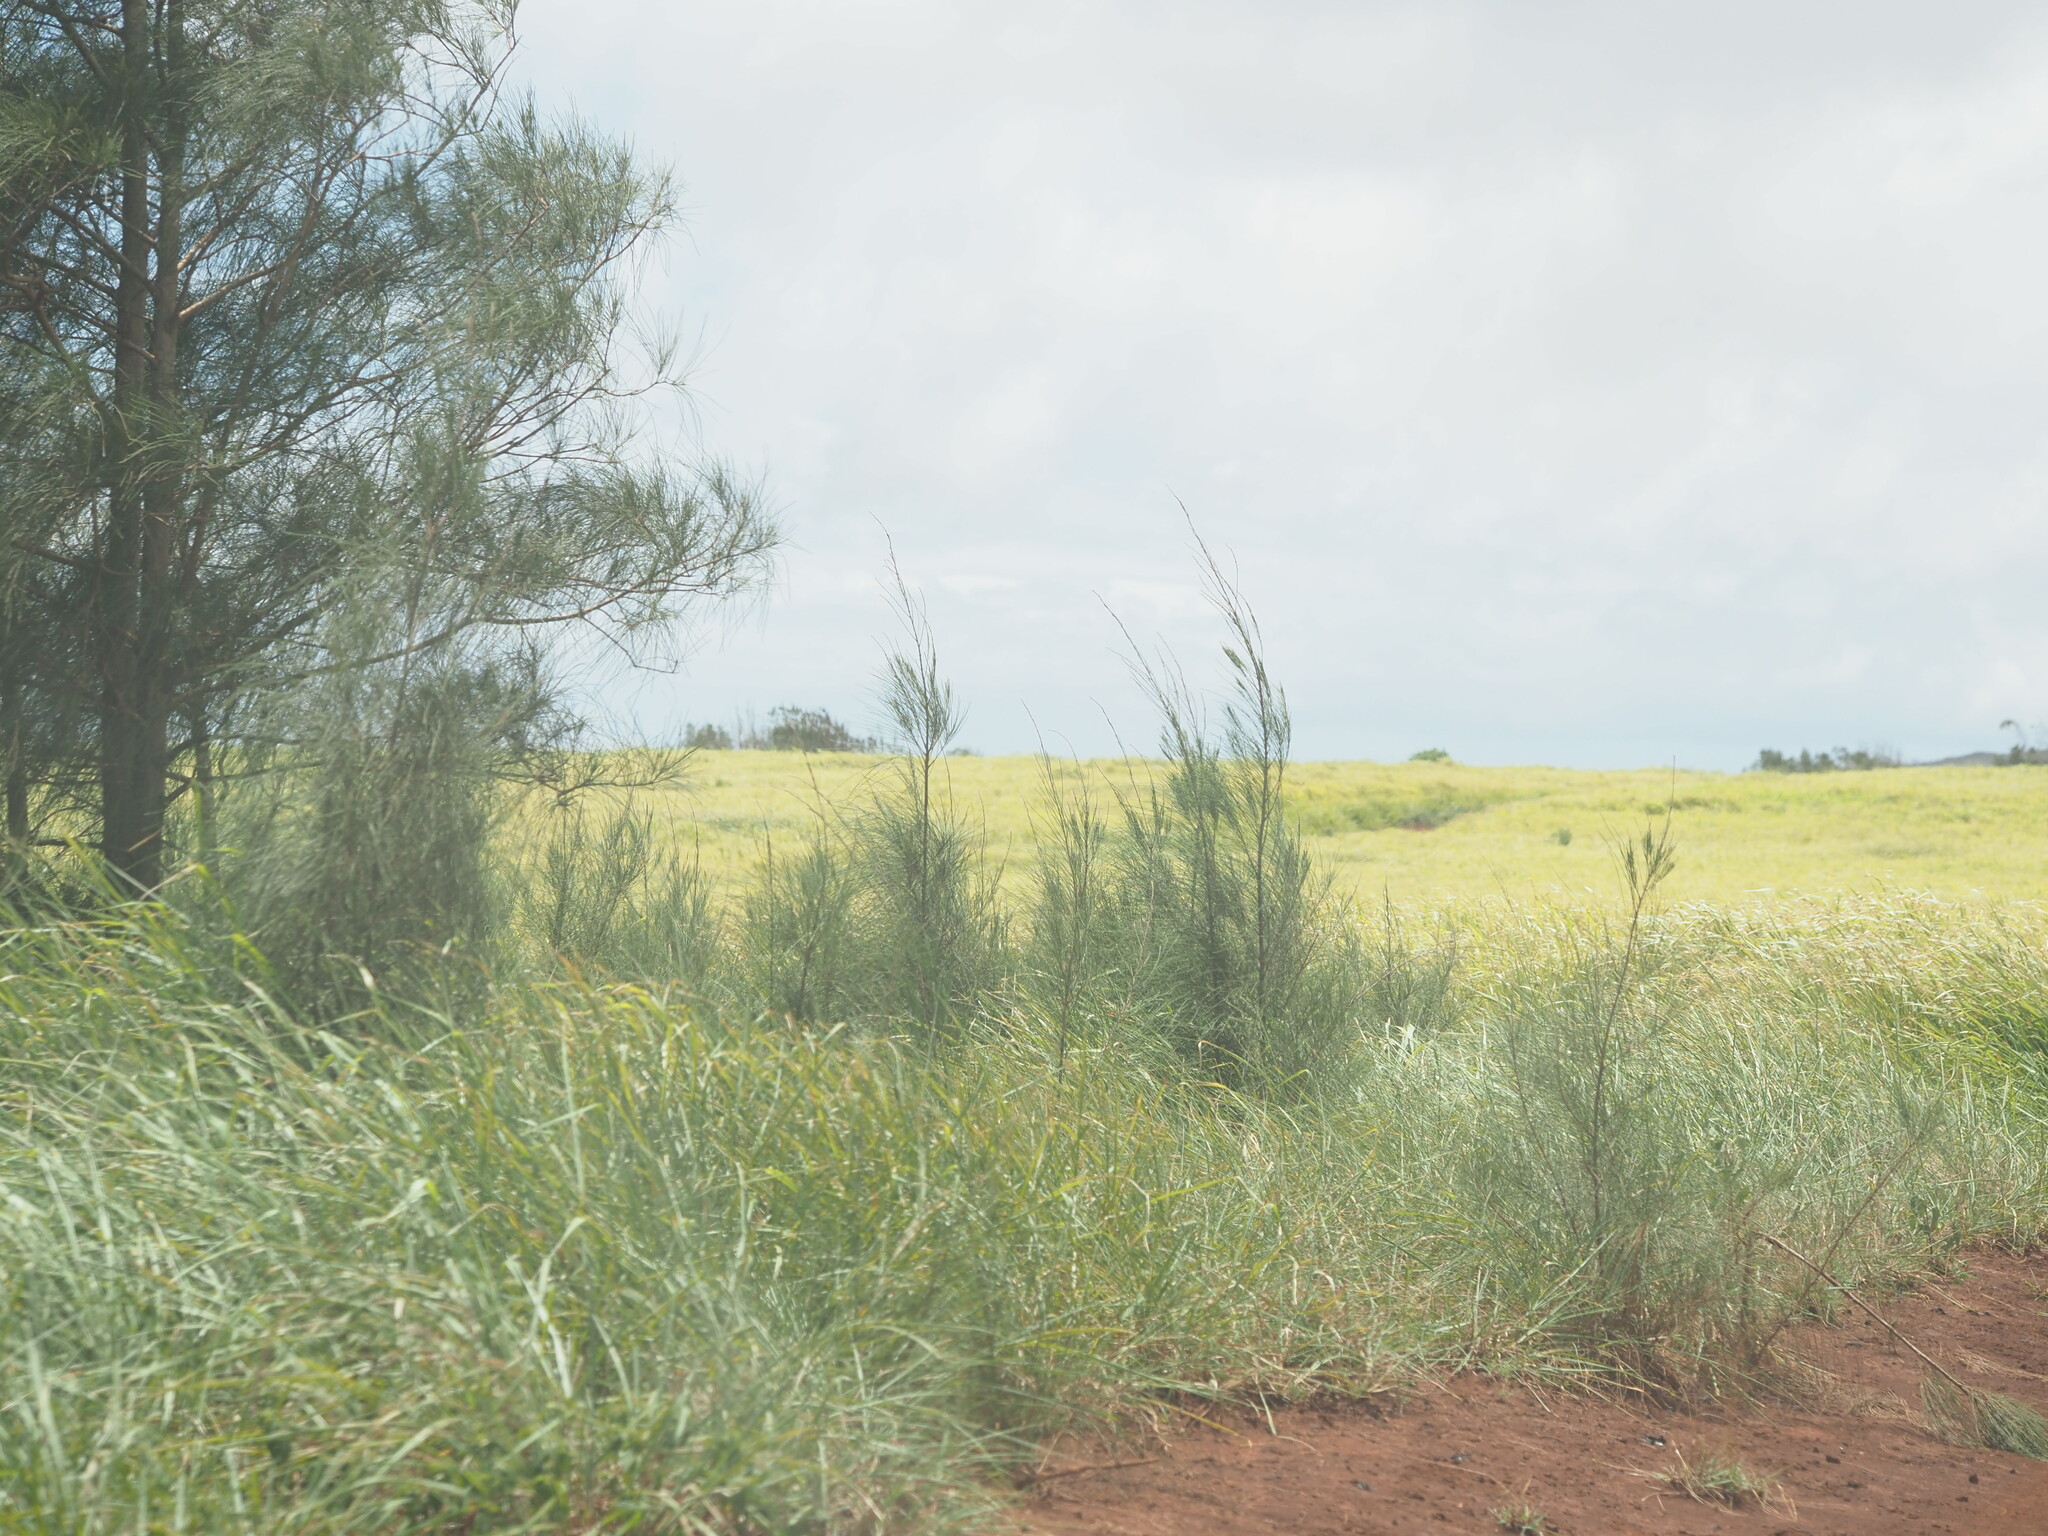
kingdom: Plantae
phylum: Tracheophyta
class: Magnoliopsida
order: Fagales
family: Casuarinaceae
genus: Casuarina
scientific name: Casuarina equisetifolia
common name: Beach sheoak
